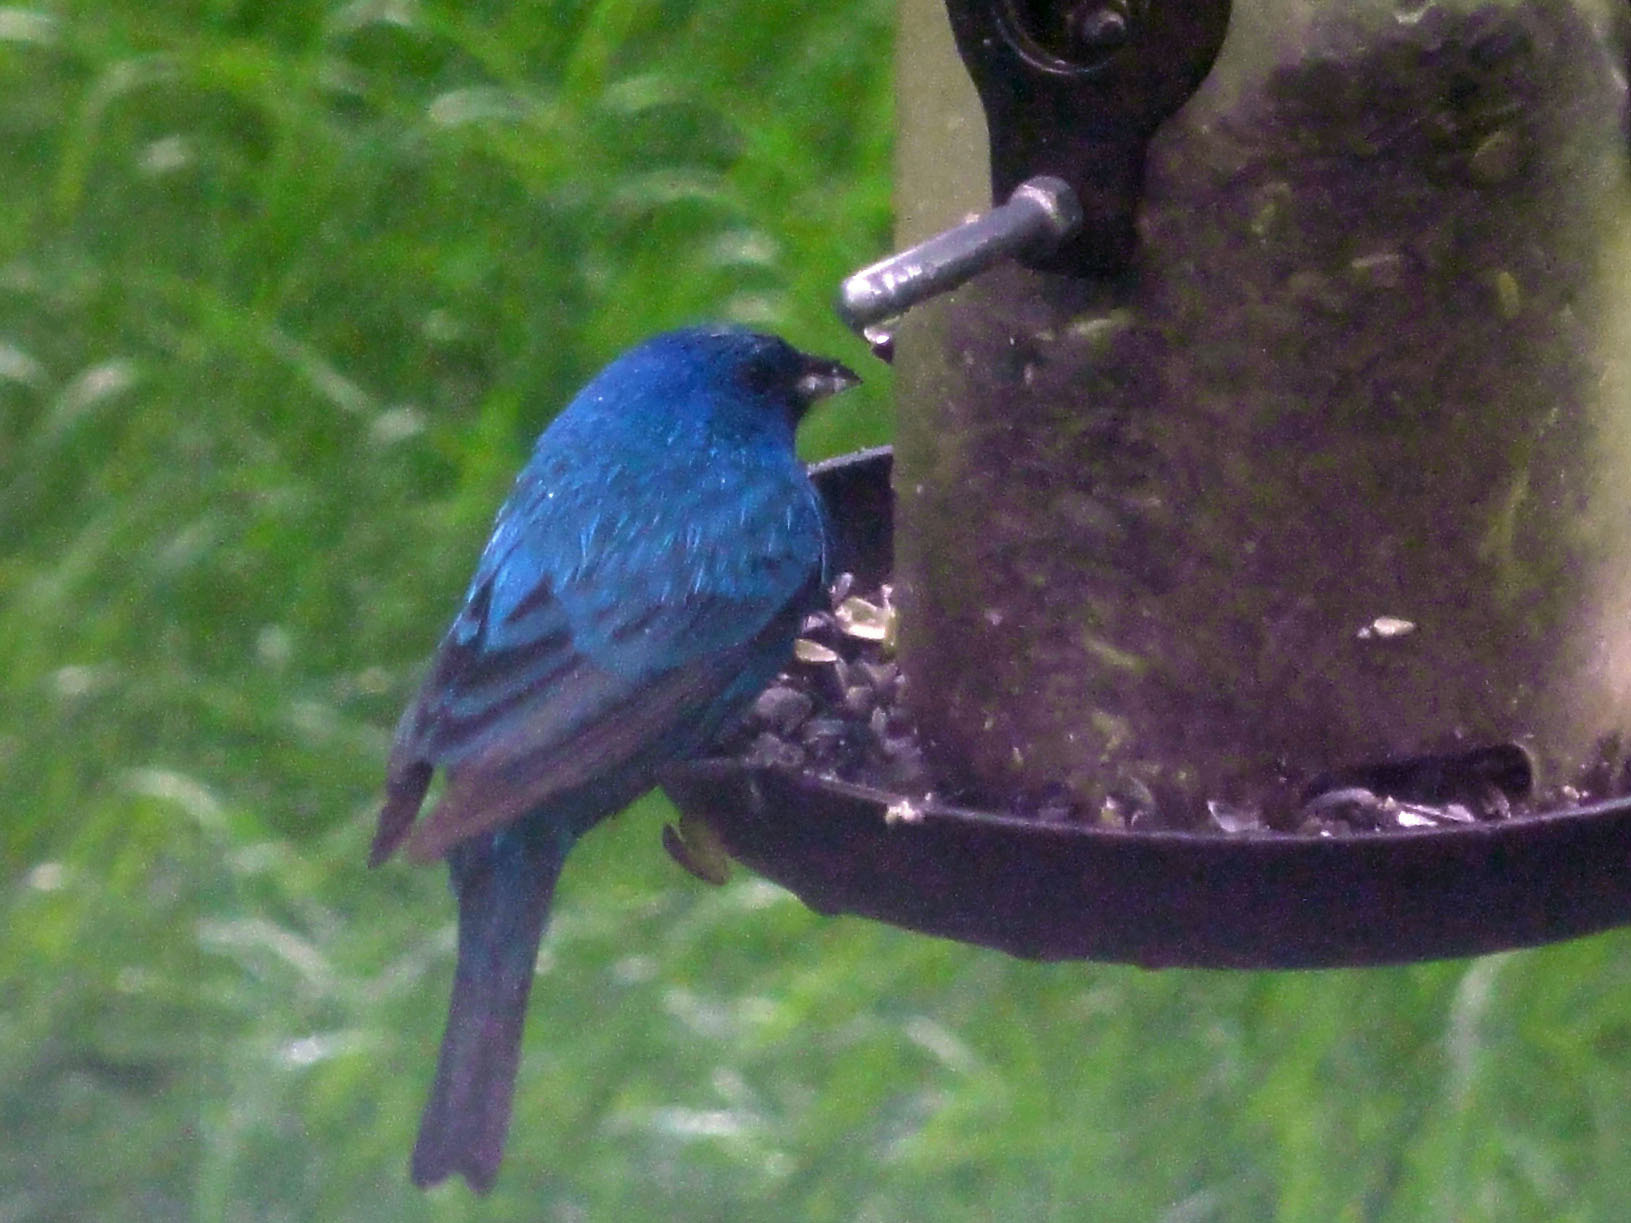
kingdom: Animalia
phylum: Chordata
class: Aves
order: Passeriformes
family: Cardinalidae
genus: Passerina
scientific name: Passerina cyanea
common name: Indigo bunting
